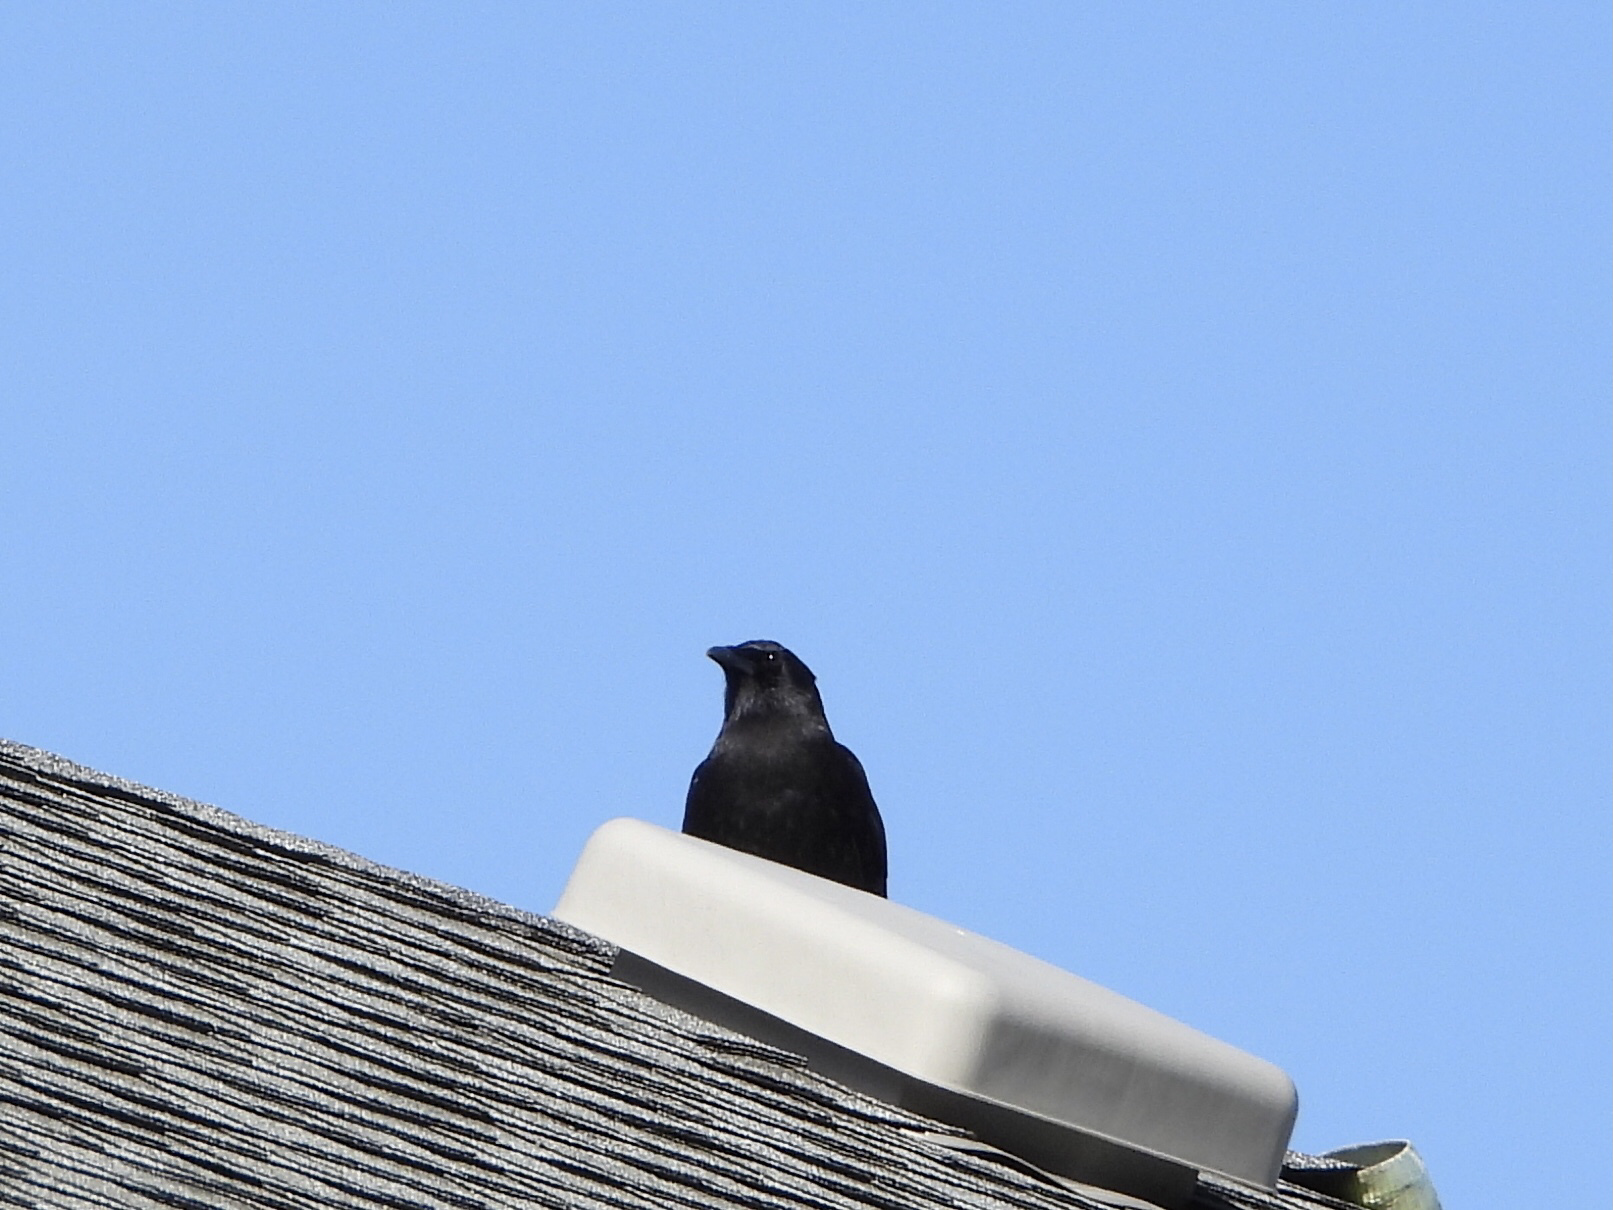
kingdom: Animalia
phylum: Chordata
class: Aves
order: Passeriformes
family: Corvidae
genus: Corvus
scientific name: Corvus brachyrhynchos
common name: American crow
